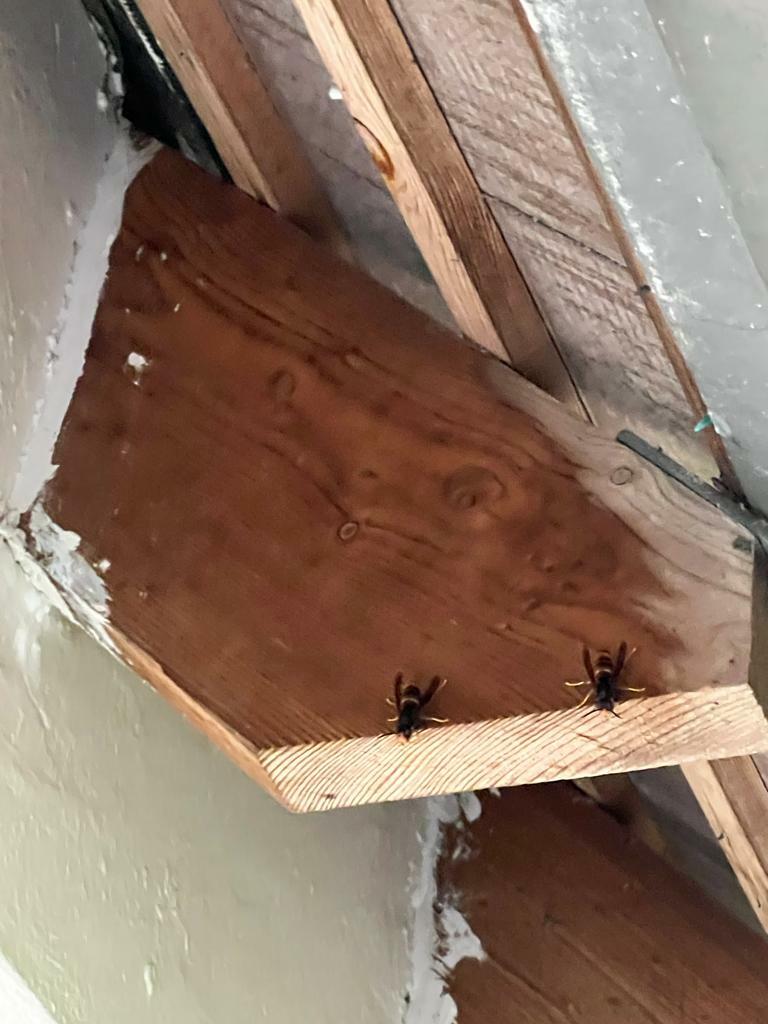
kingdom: Animalia
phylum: Arthropoda
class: Insecta
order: Hymenoptera
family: Vespidae
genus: Vespa
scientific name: Vespa velutina
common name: Asian hornet
